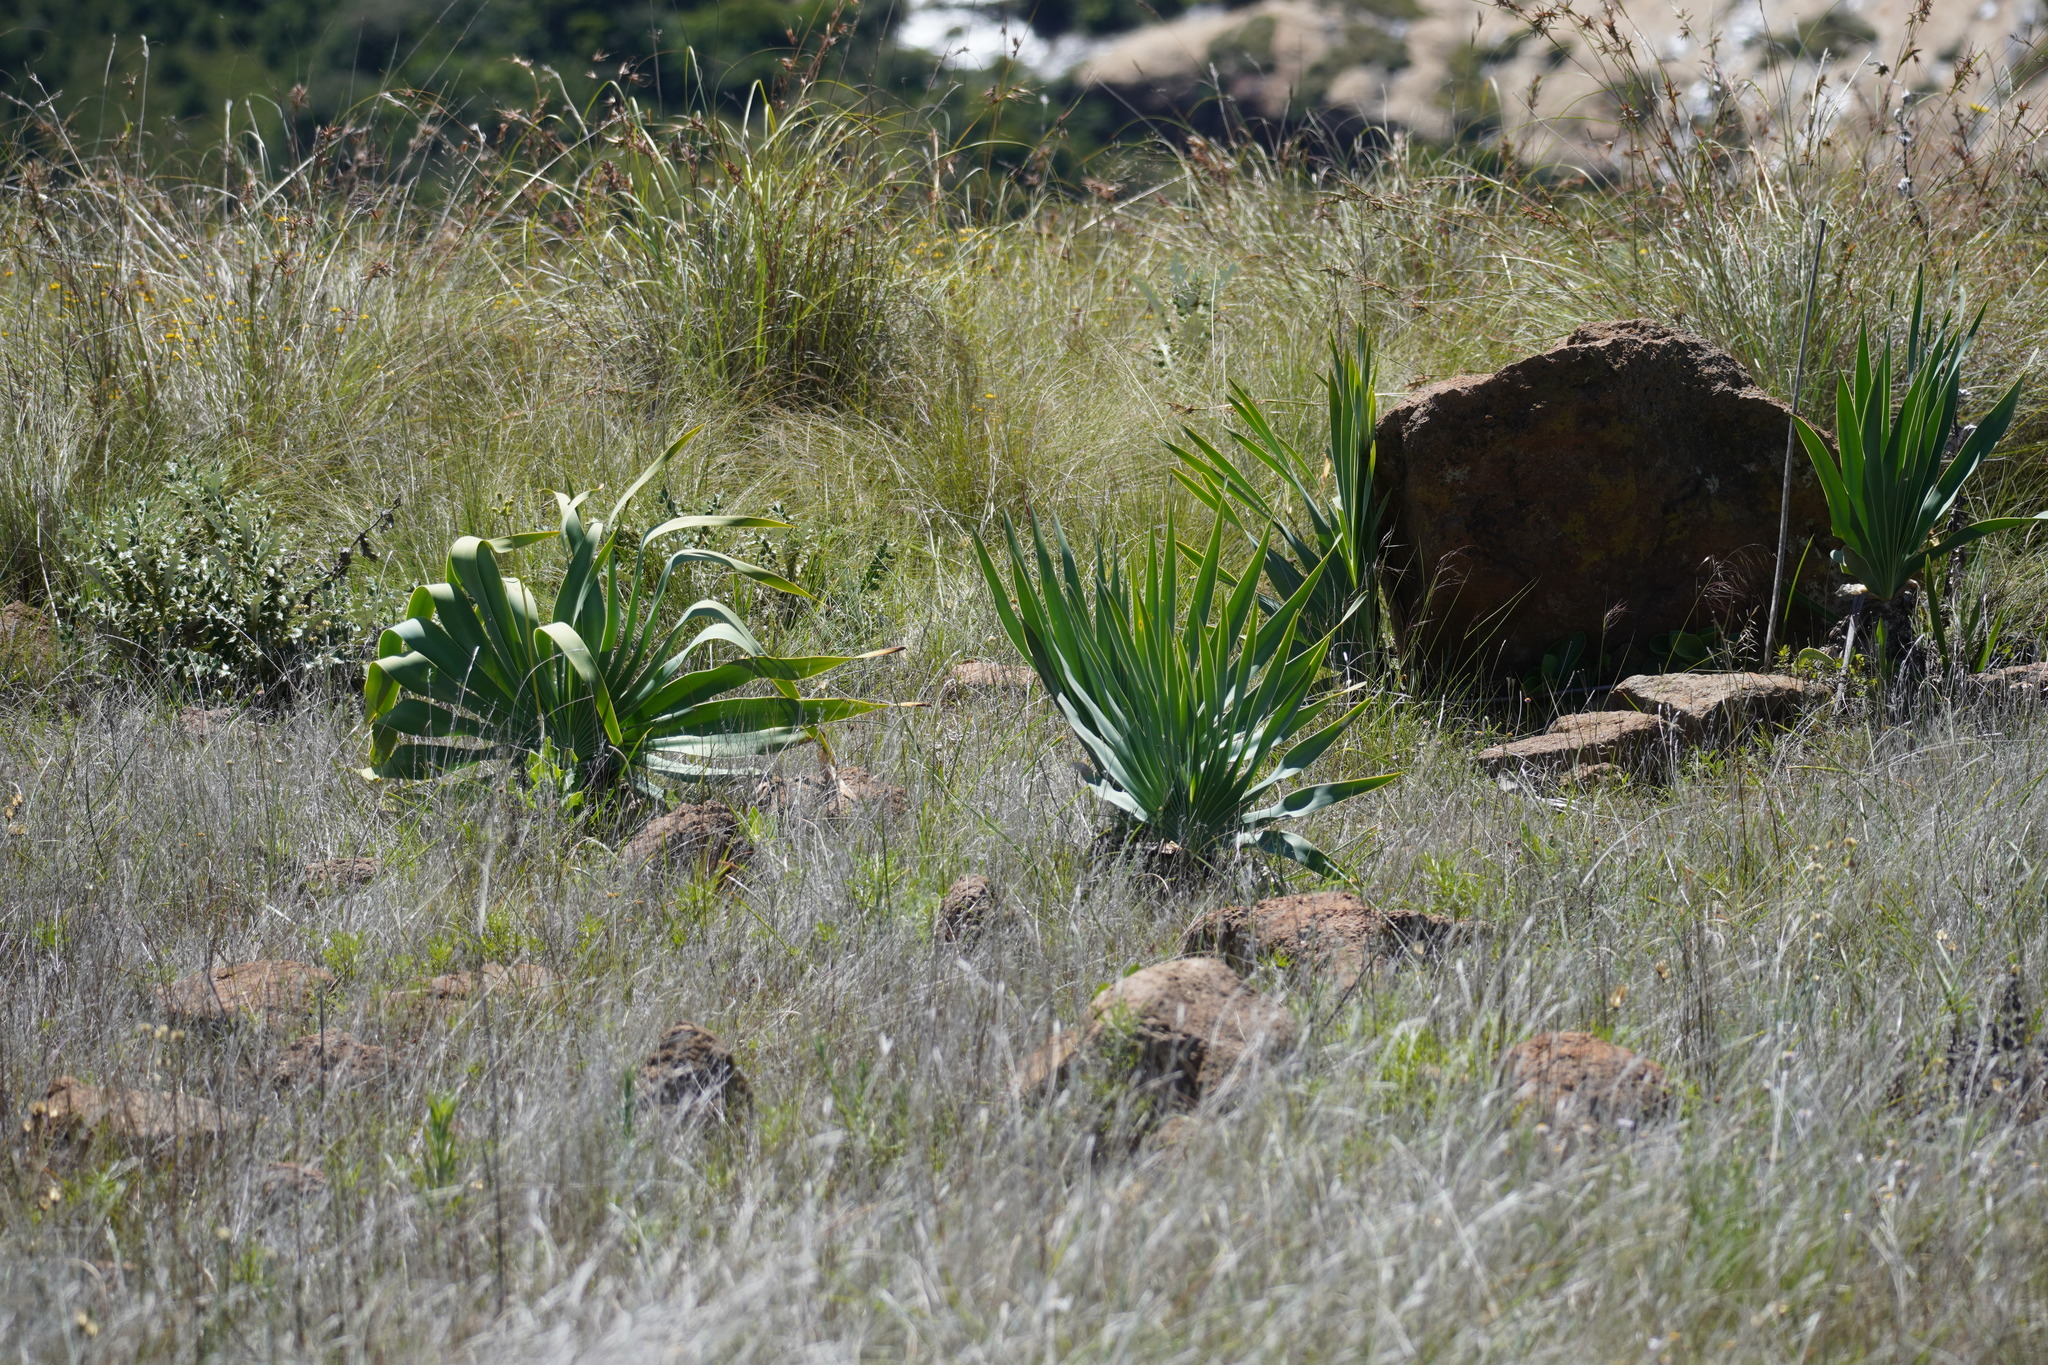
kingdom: Plantae
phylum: Tracheophyta
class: Liliopsida
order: Asparagales
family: Amaryllidaceae
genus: Boophone
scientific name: Boophone disticha
